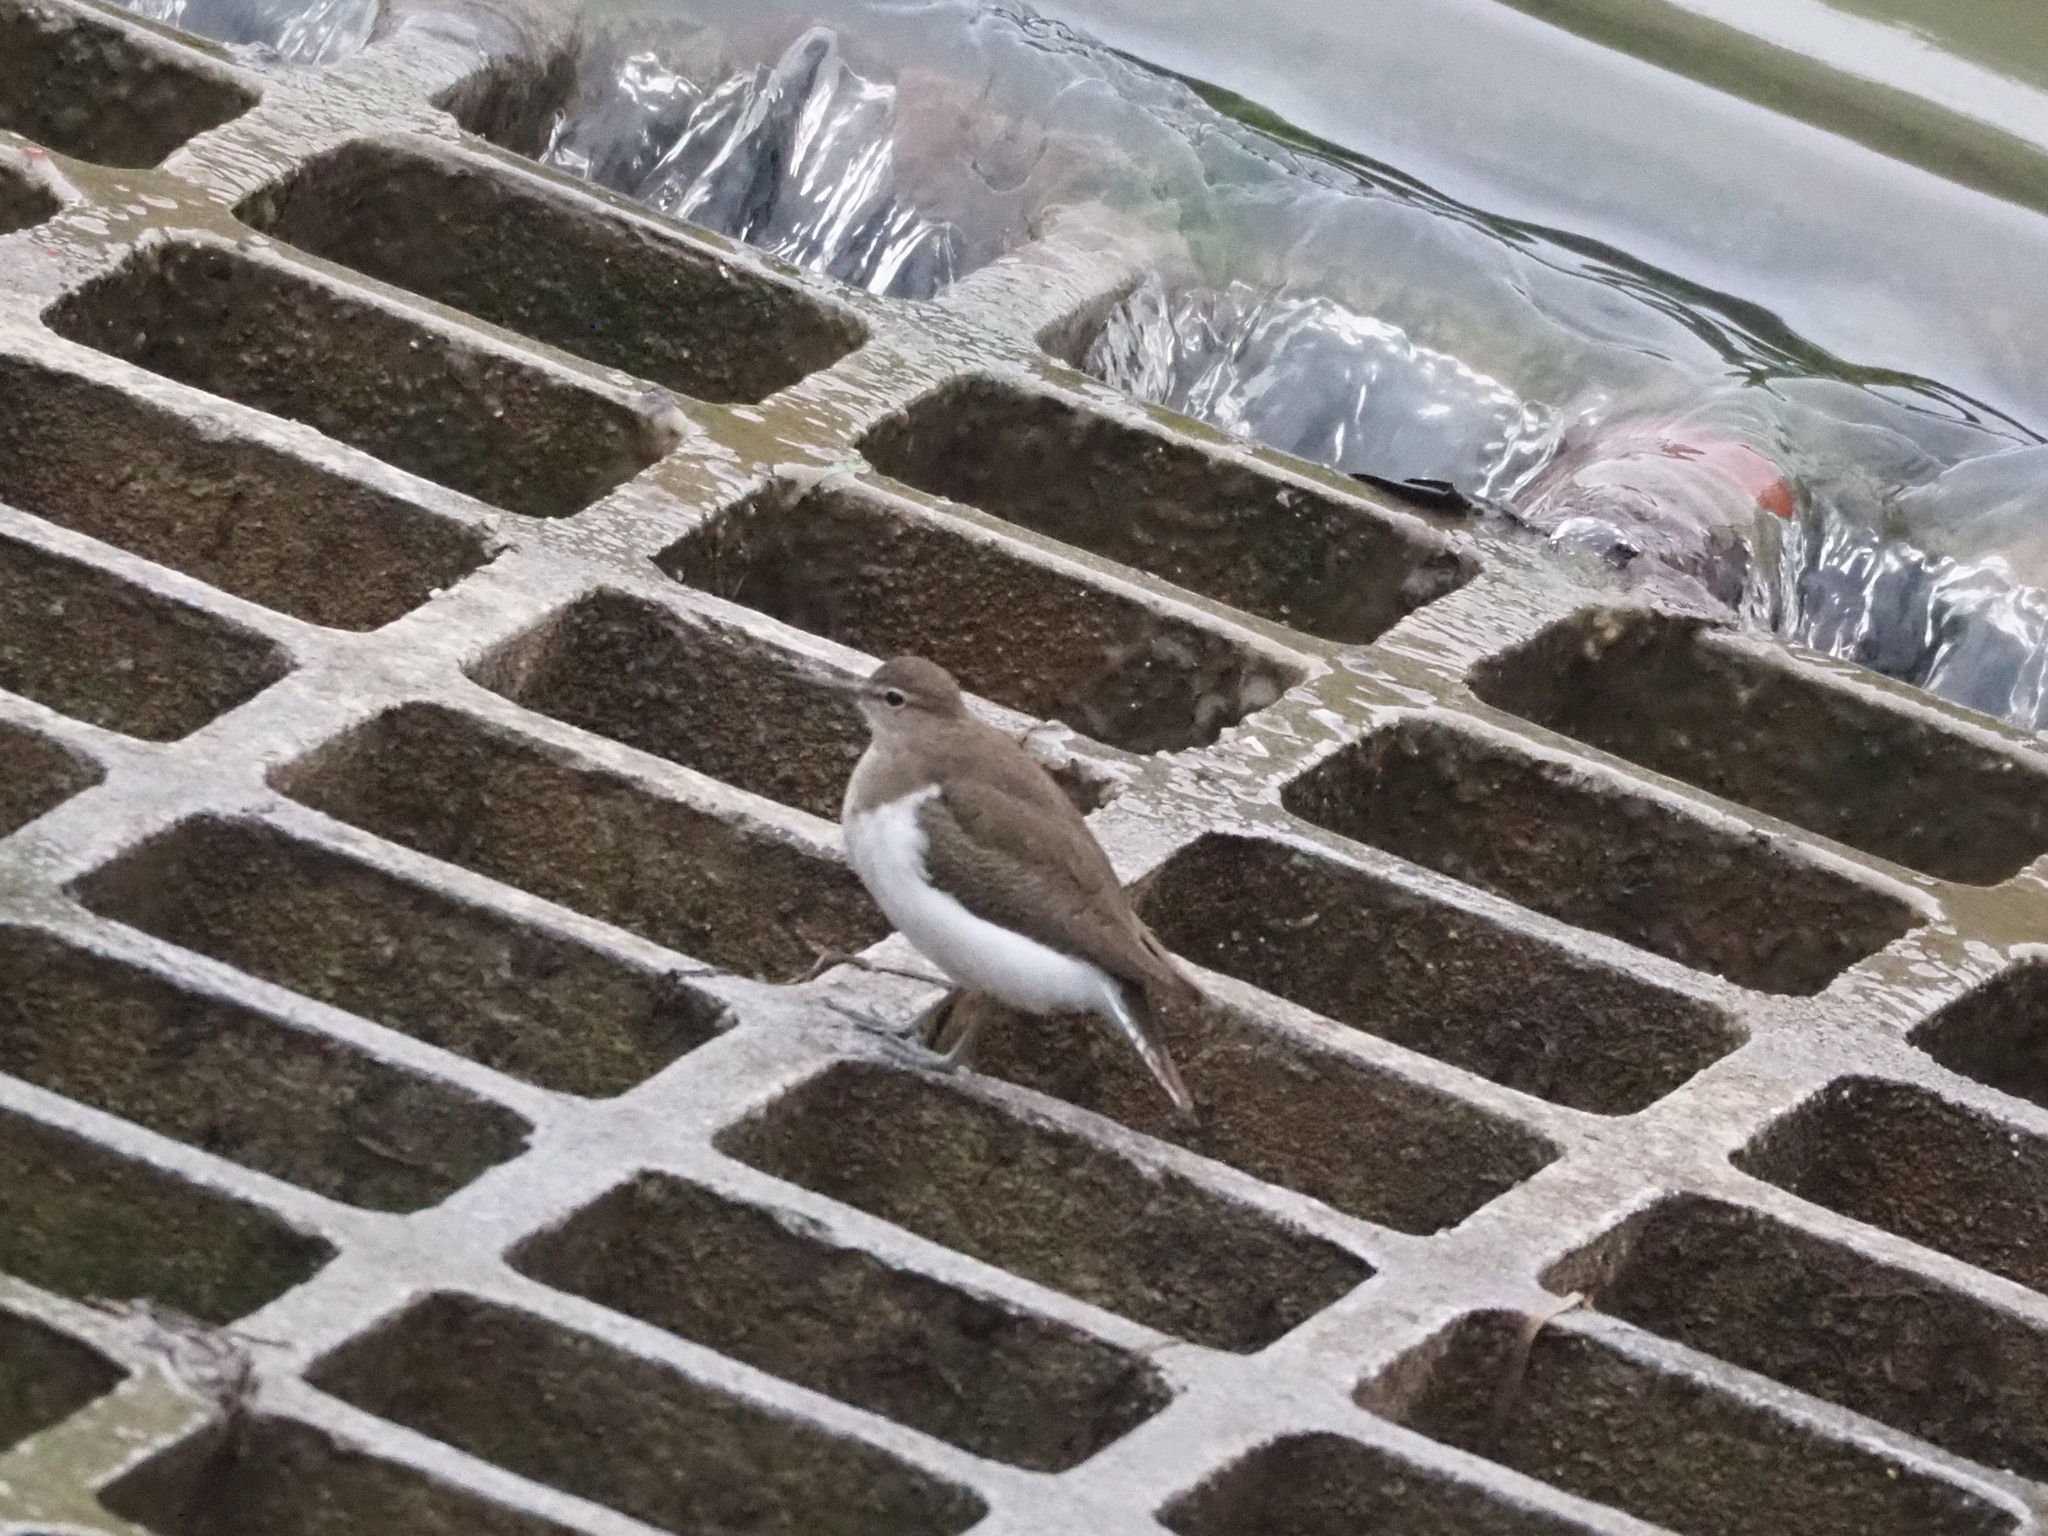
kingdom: Animalia
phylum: Chordata
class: Aves
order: Charadriiformes
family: Scolopacidae
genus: Actitis
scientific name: Actitis hypoleucos
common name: Common sandpiper
